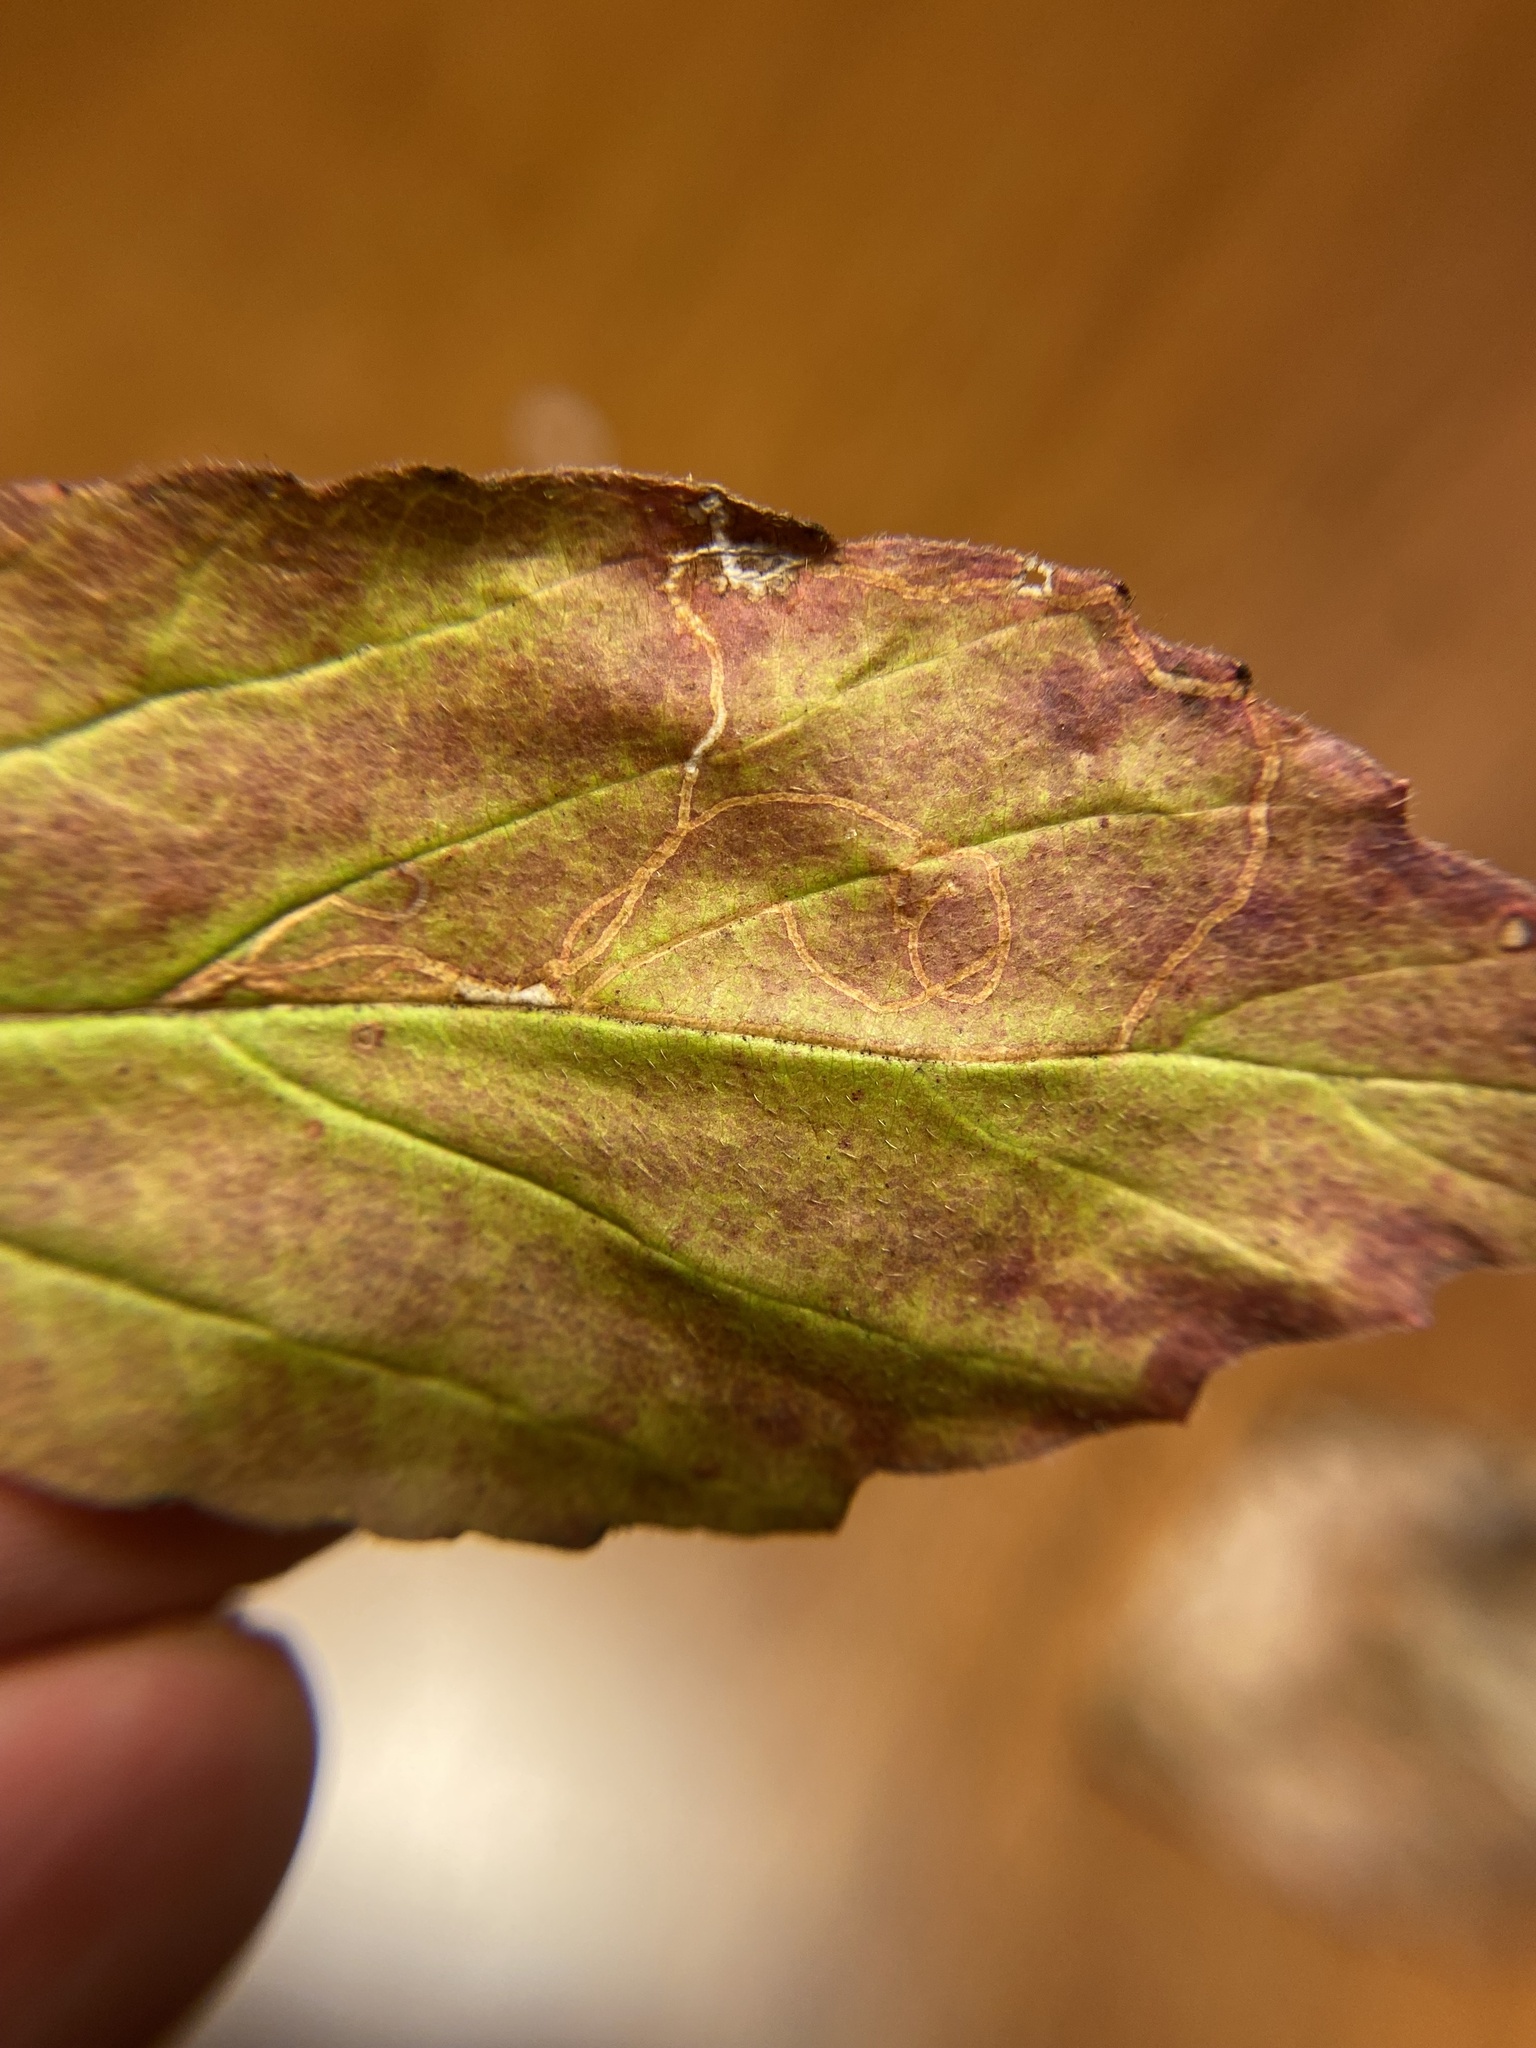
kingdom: Animalia
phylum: Arthropoda
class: Insecta
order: Lepidoptera
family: Gracillariidae
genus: Marmara
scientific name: Marmara viburnella
